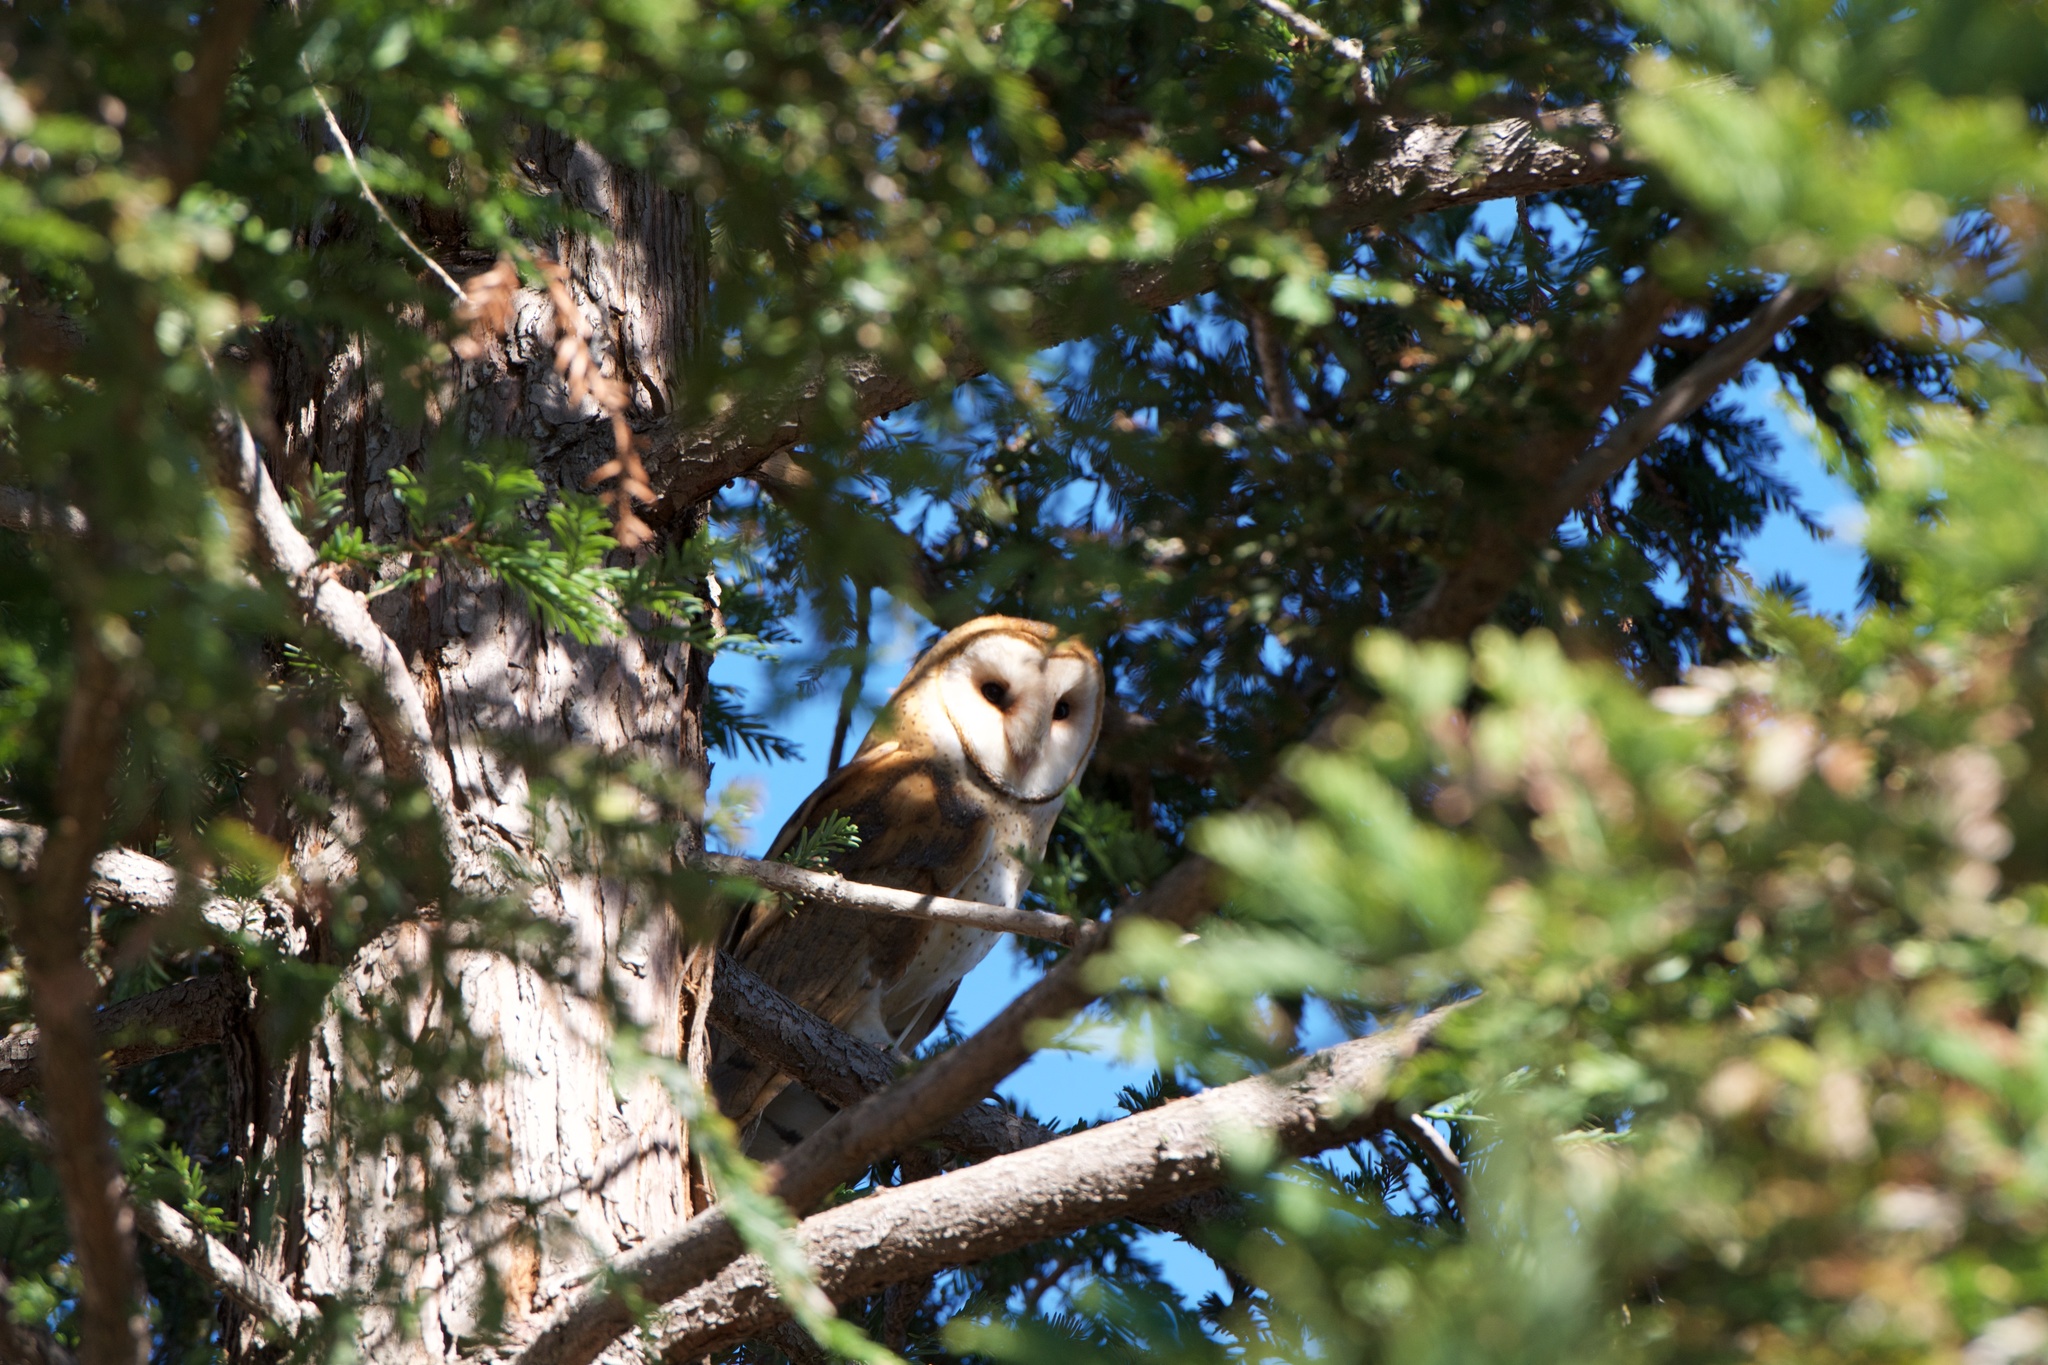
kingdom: Animalia
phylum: Chordata
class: Aves
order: Strigiformes
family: Tytonidae
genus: Tyto
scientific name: Tyto alba
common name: Barn owl
